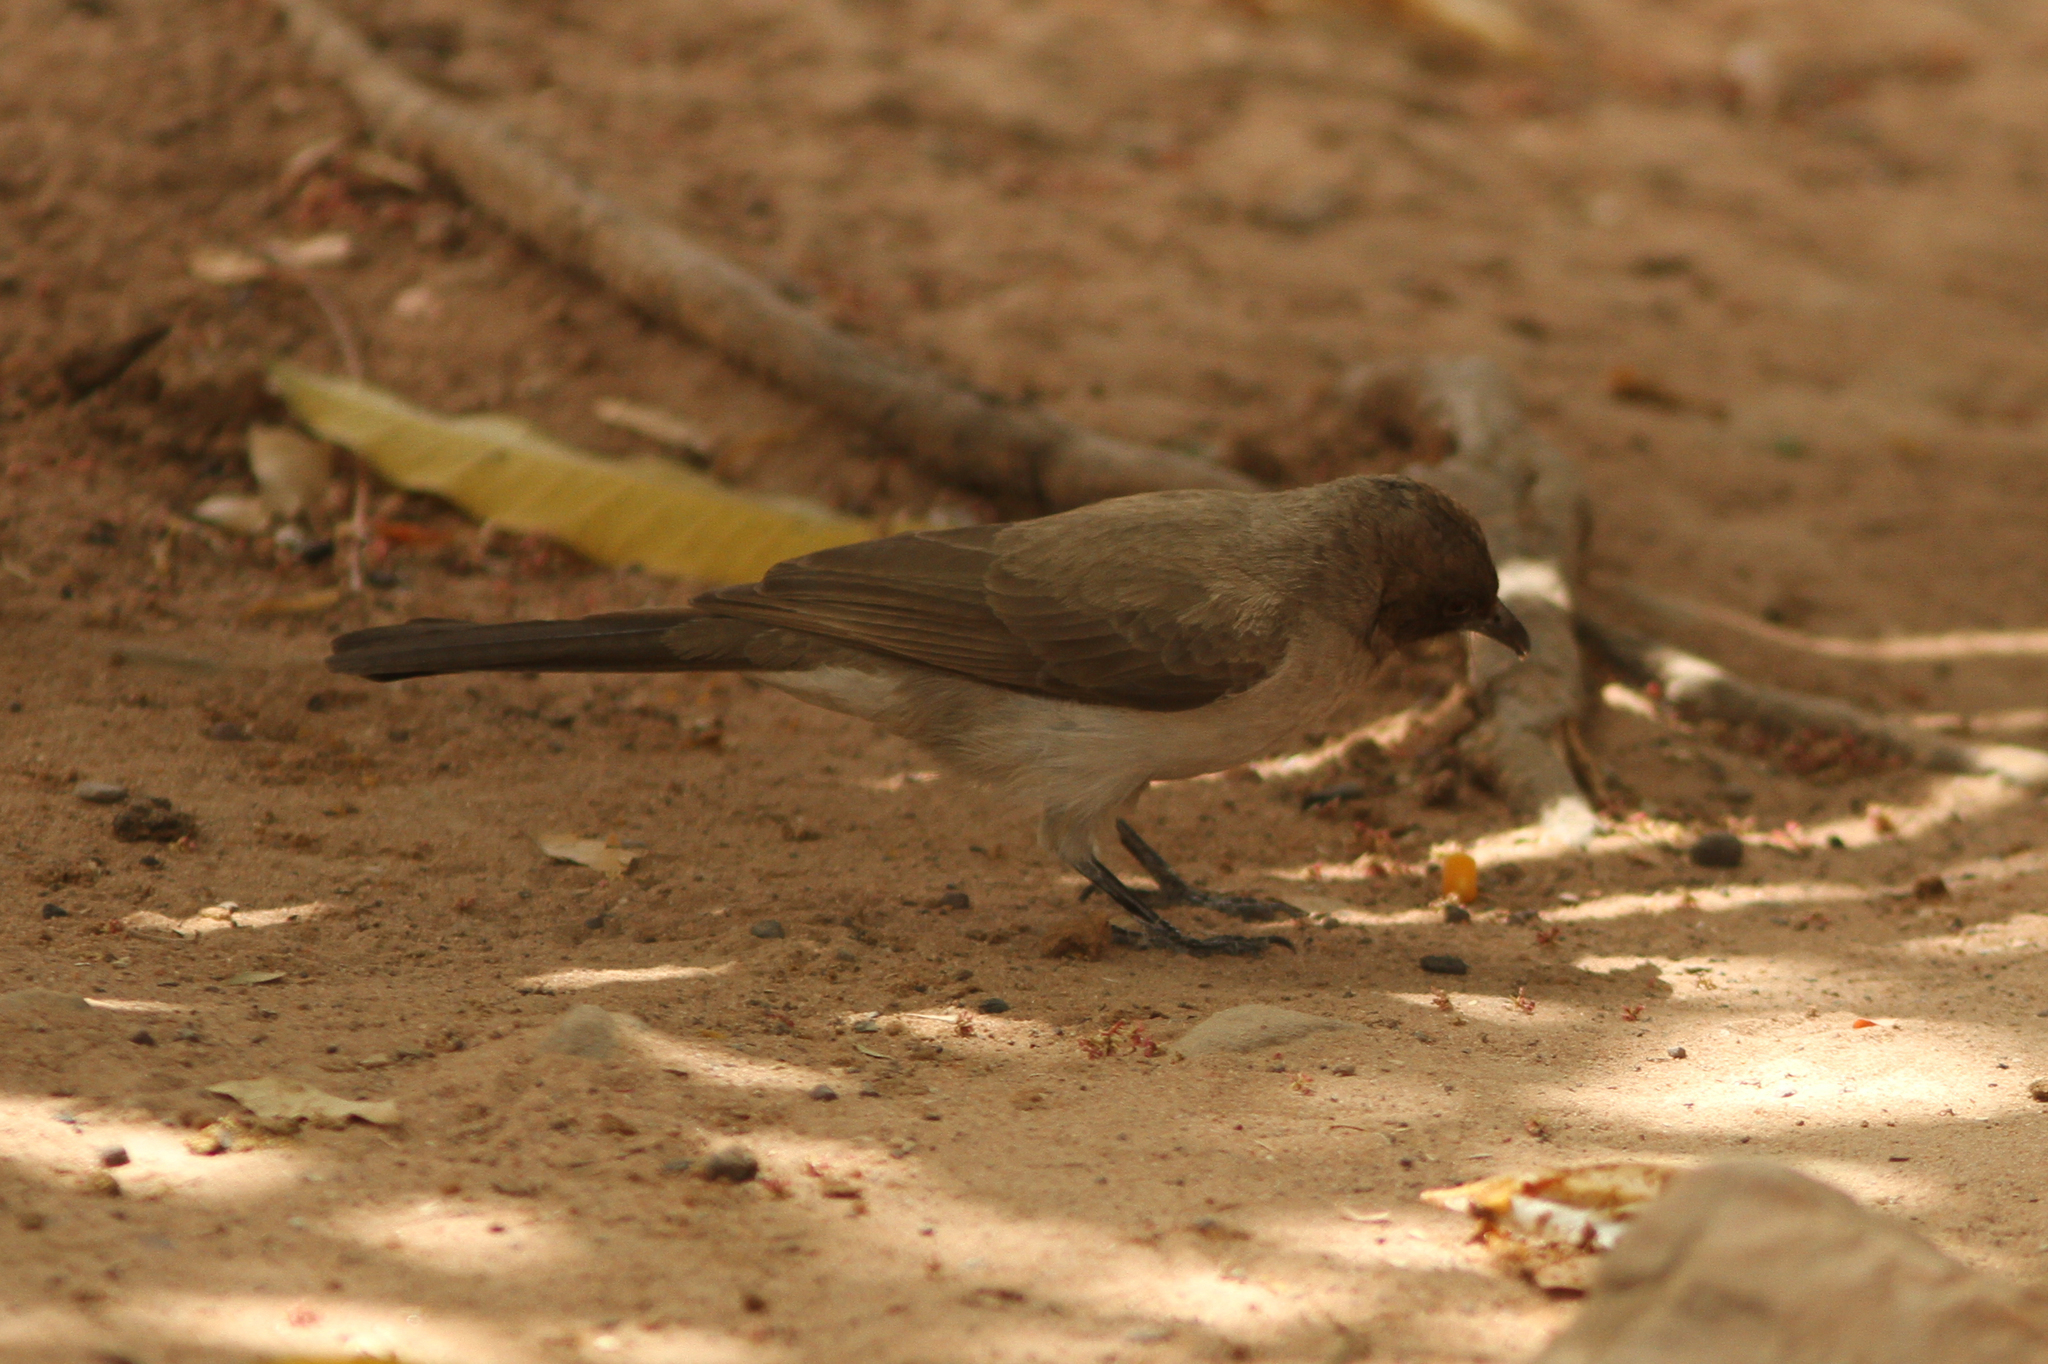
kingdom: Animalia
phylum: Chordata
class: Aves
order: Passeriformes
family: Pycnonotidae
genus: Pycnonotus
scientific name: Pycnonotus barbatus
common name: Common bulbul
